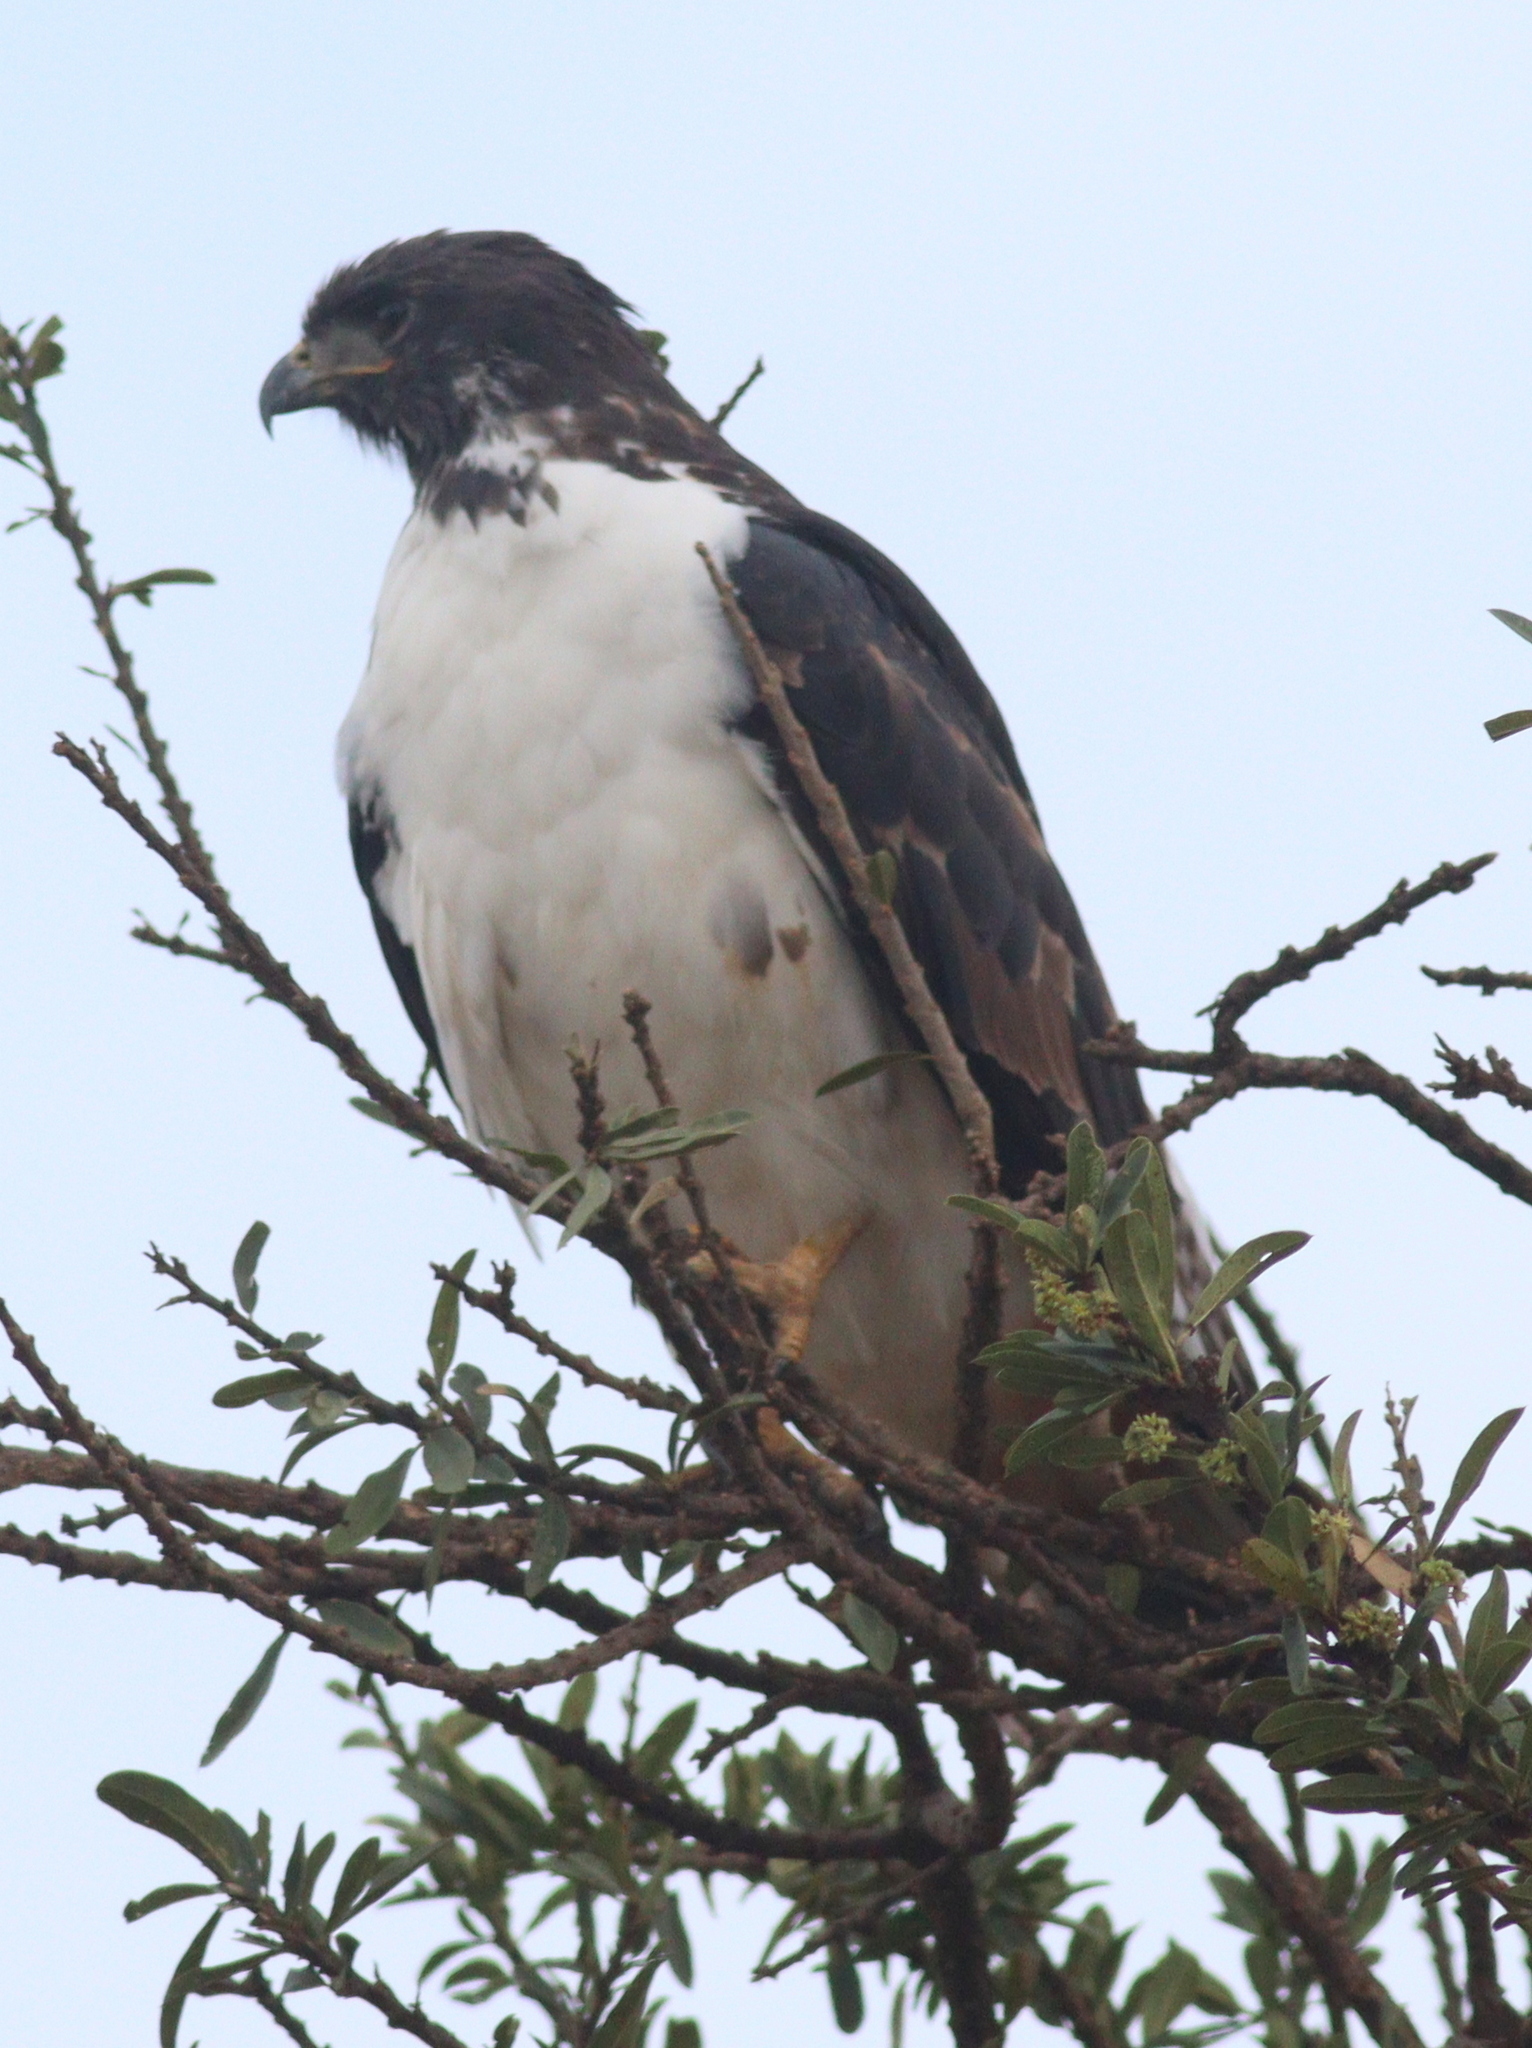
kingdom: Animalia
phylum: Chordata
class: Aves
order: Accipitriformes
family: Accipitridae
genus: Buteo
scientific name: Buteo augur
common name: Augur buzzard
